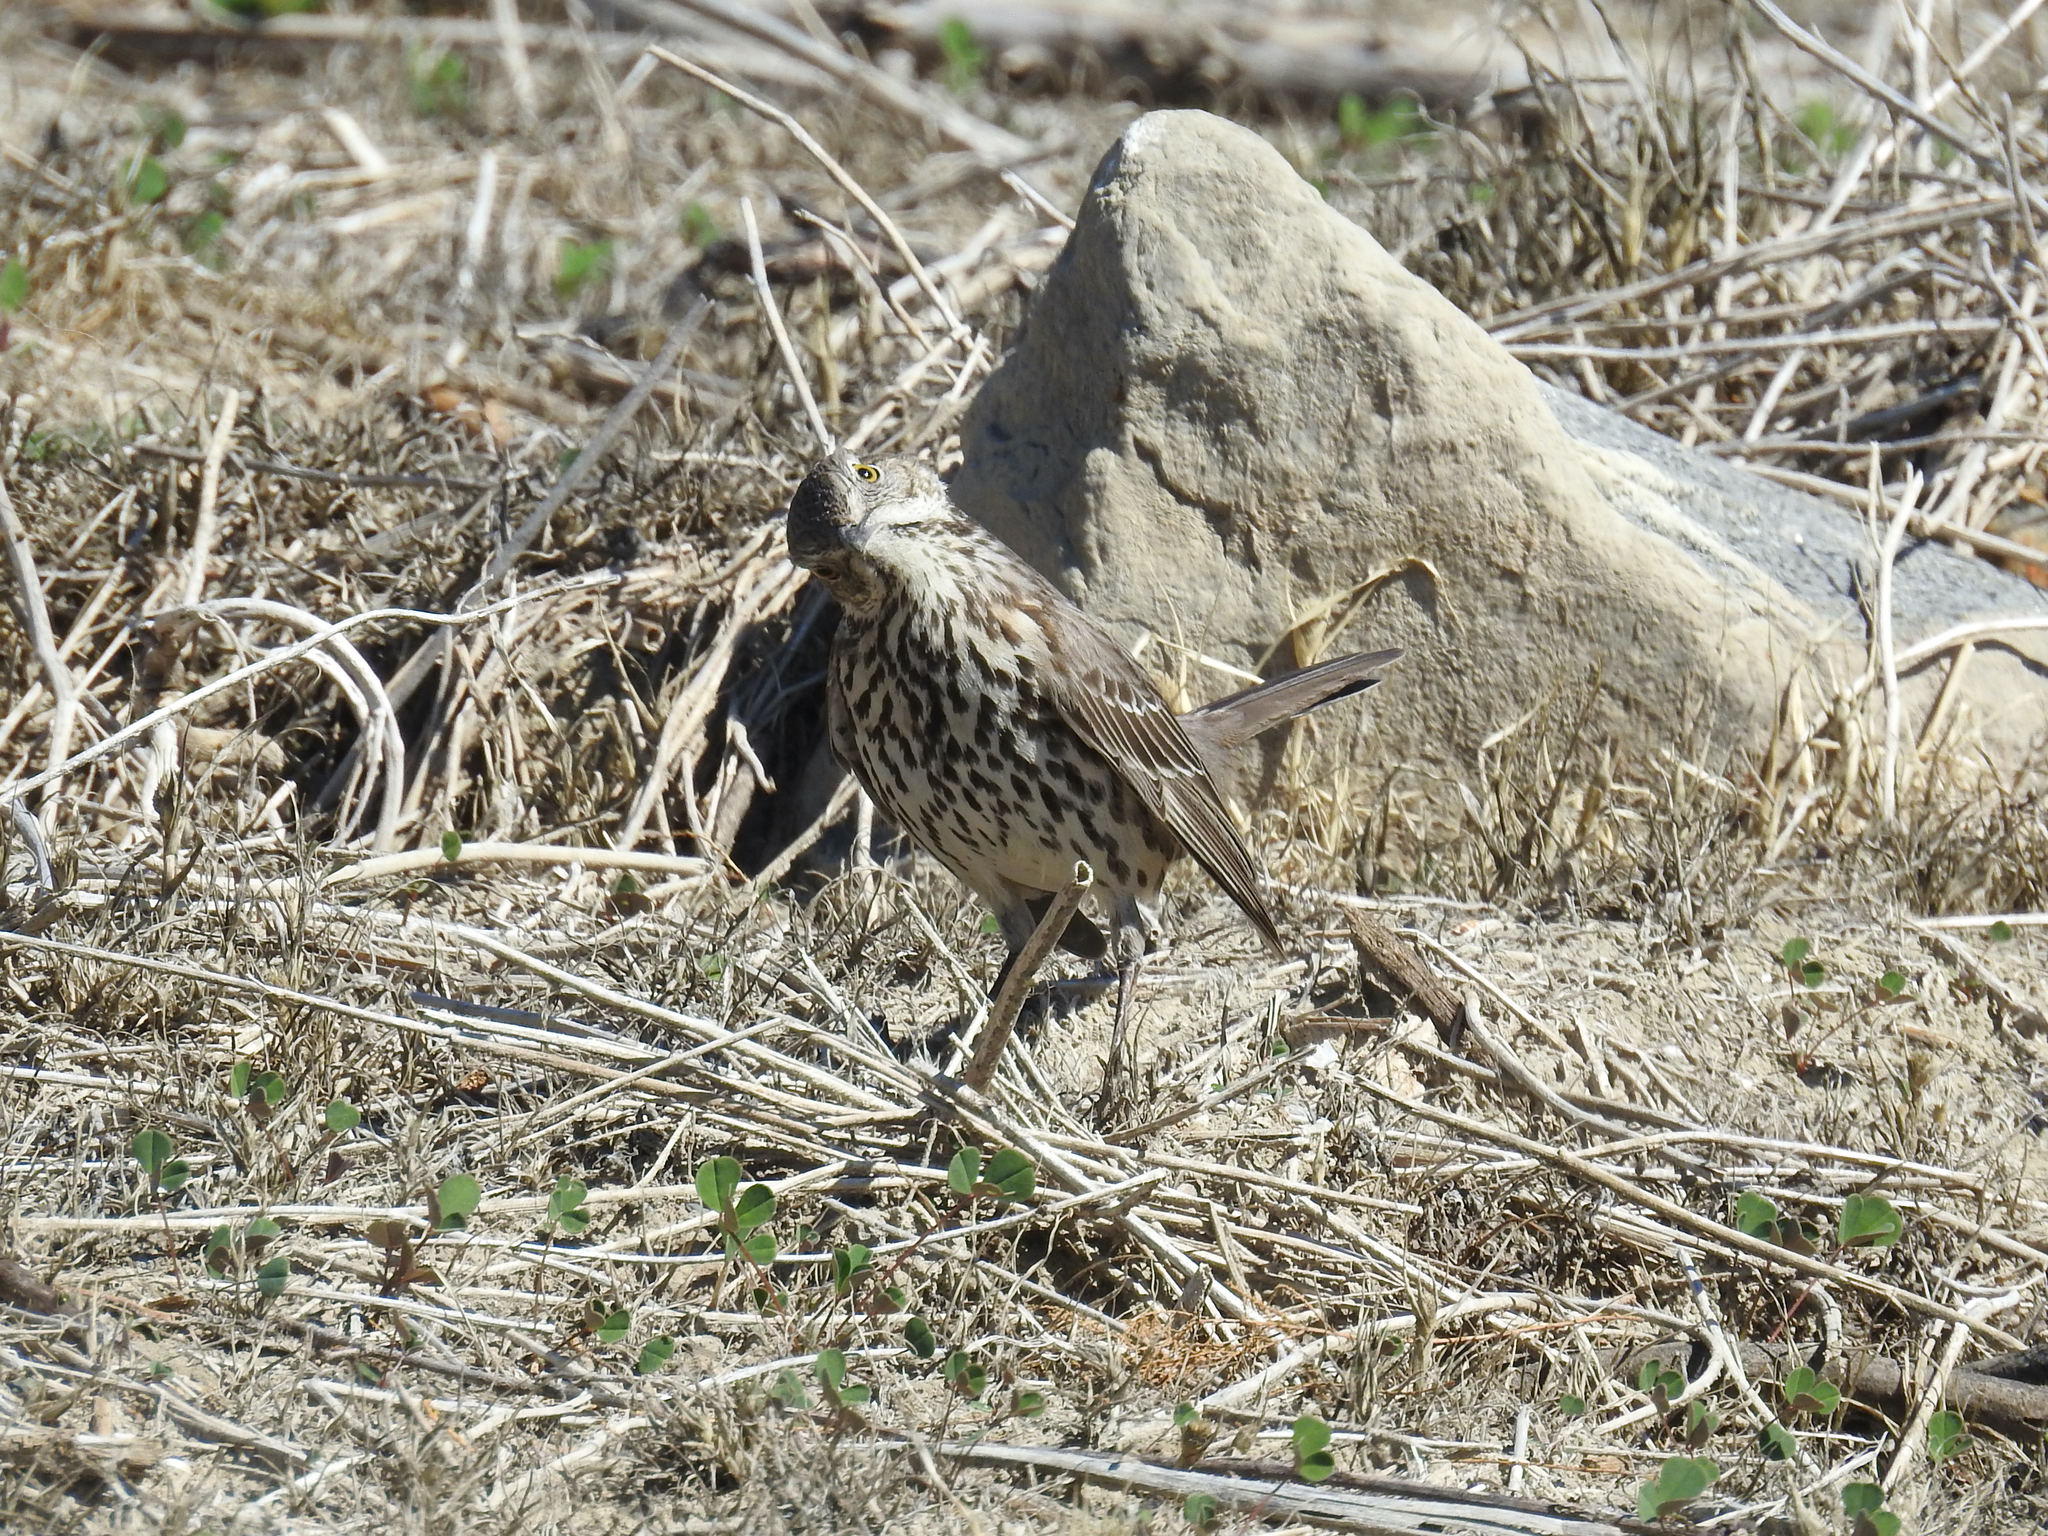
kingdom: Animalia
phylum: Chordata
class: Aves
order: Passeriformes
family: Mimidae
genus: Oreoscoptes
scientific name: Oreoscoptes montanus
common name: Sage thrasher
